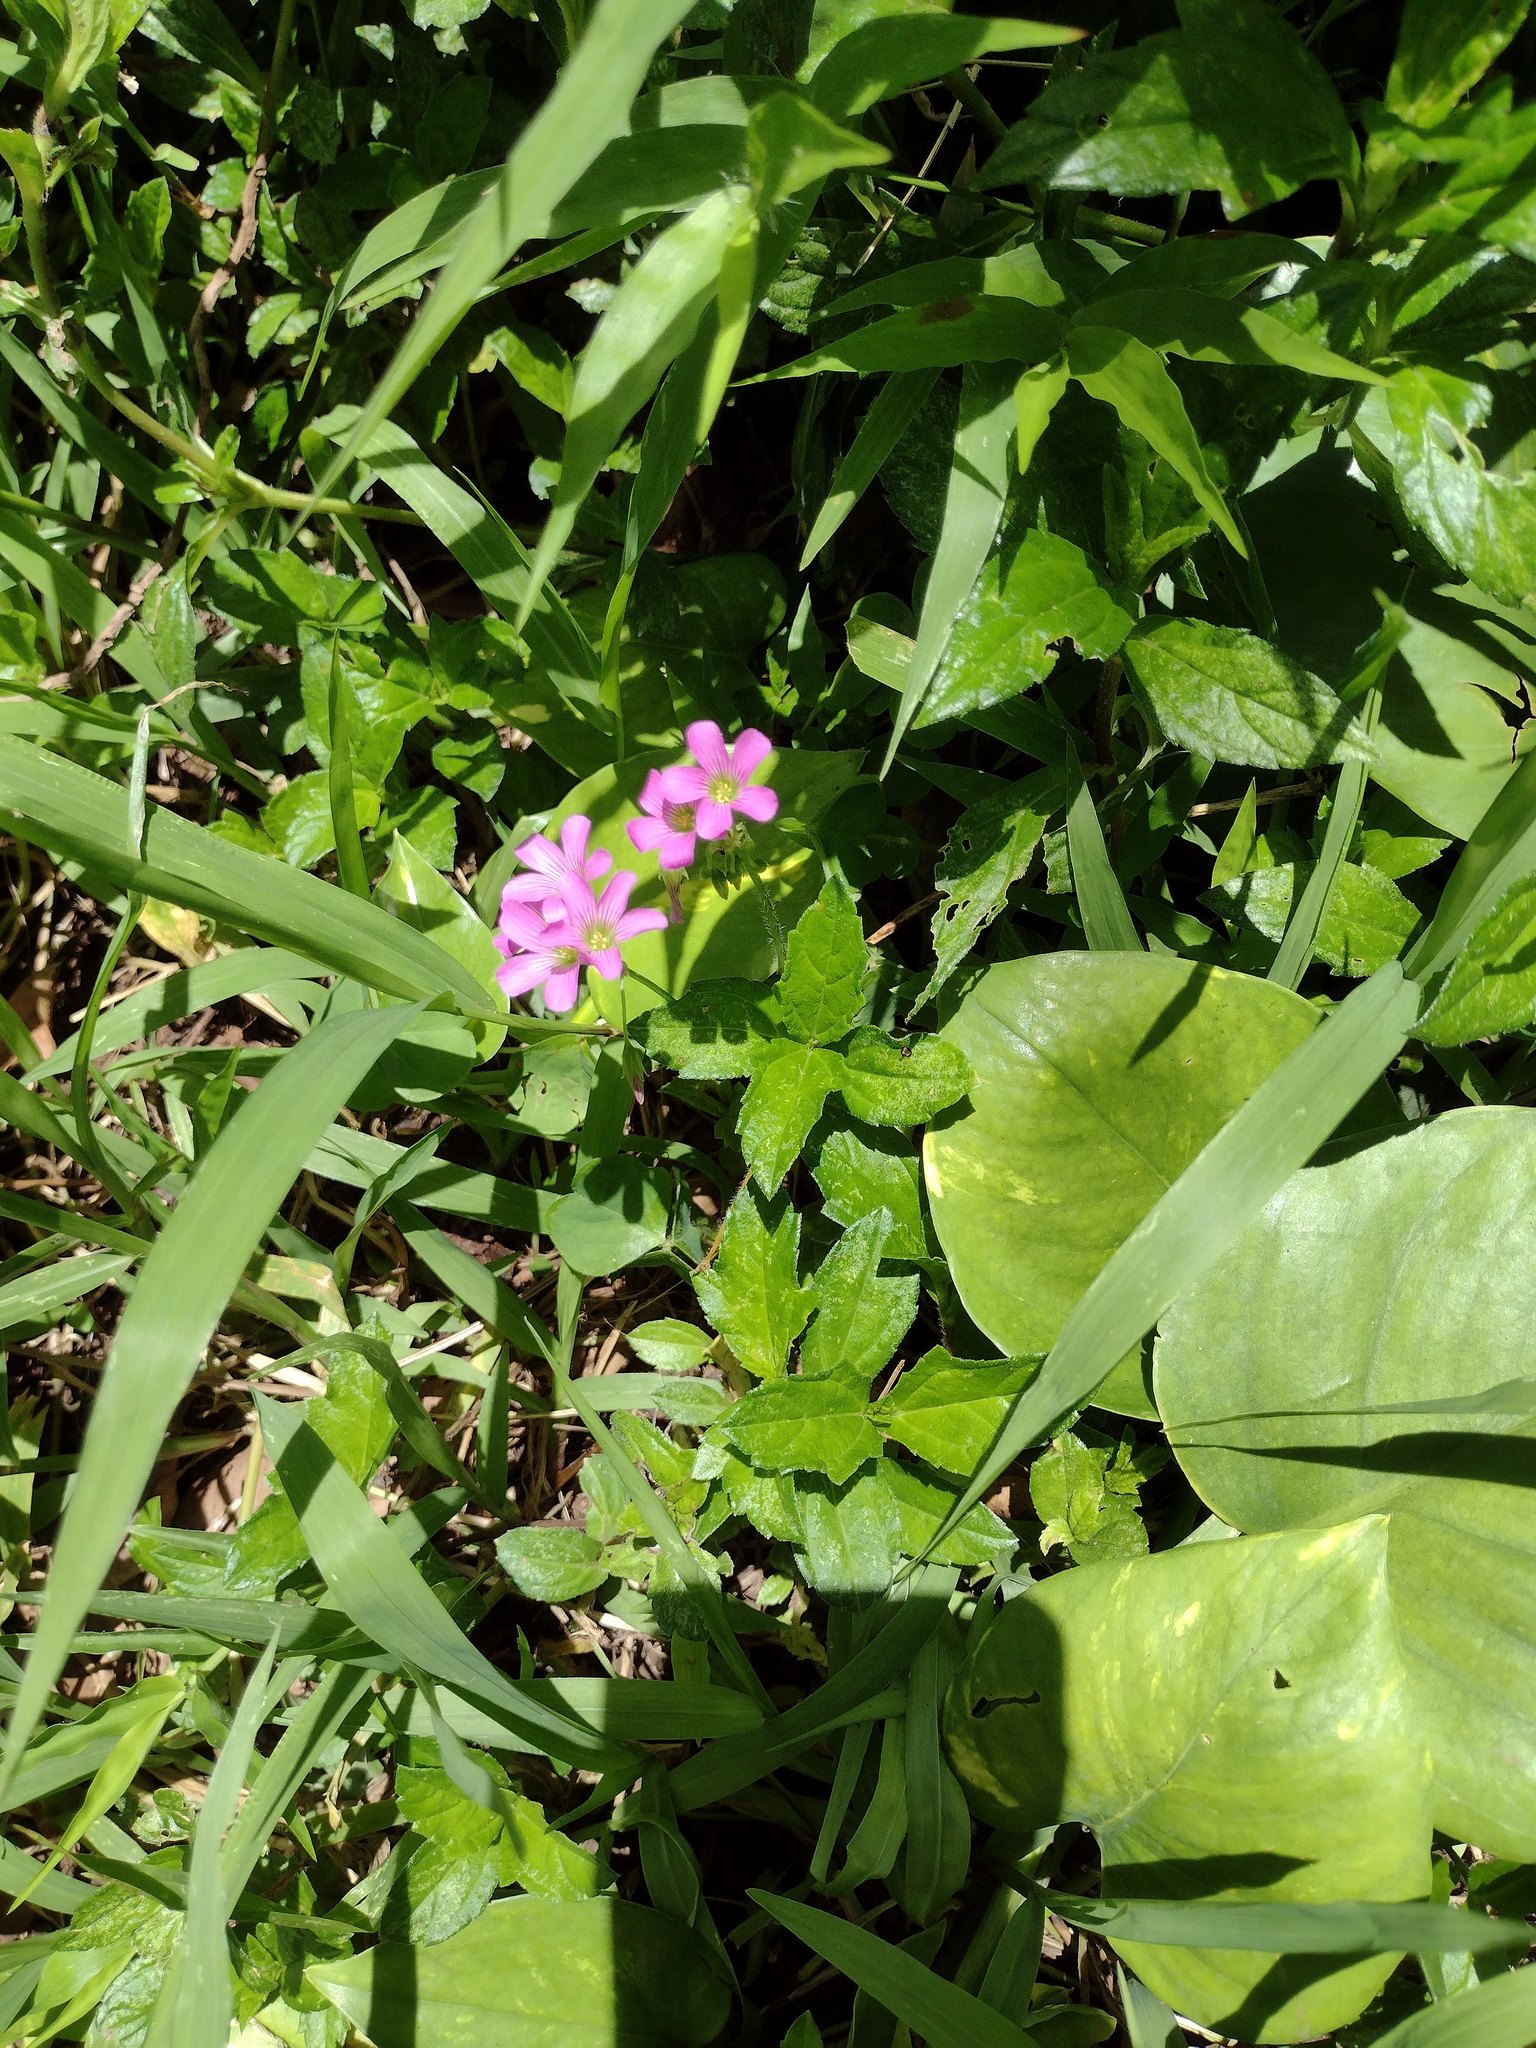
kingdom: Plantae
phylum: Tracheophyta
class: Magnoliopsida
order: Oxalidales
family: Oxalidaceae
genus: Oxalis
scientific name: Oxalis debilis
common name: Large-flowered pink-sorrel
